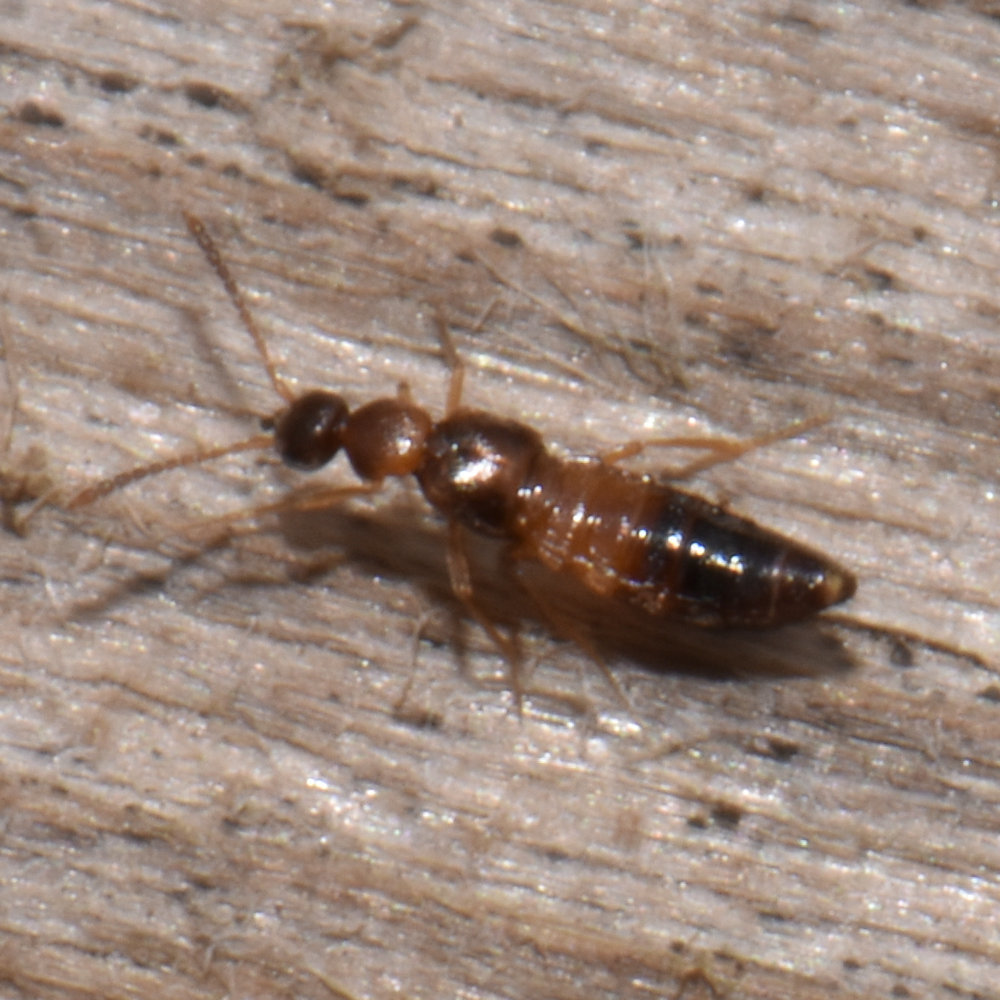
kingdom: Animalia
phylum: Arthropoda
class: Insecta
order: Coleoptera
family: Staphylinidae
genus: Meronera
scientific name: Meronera venustula
